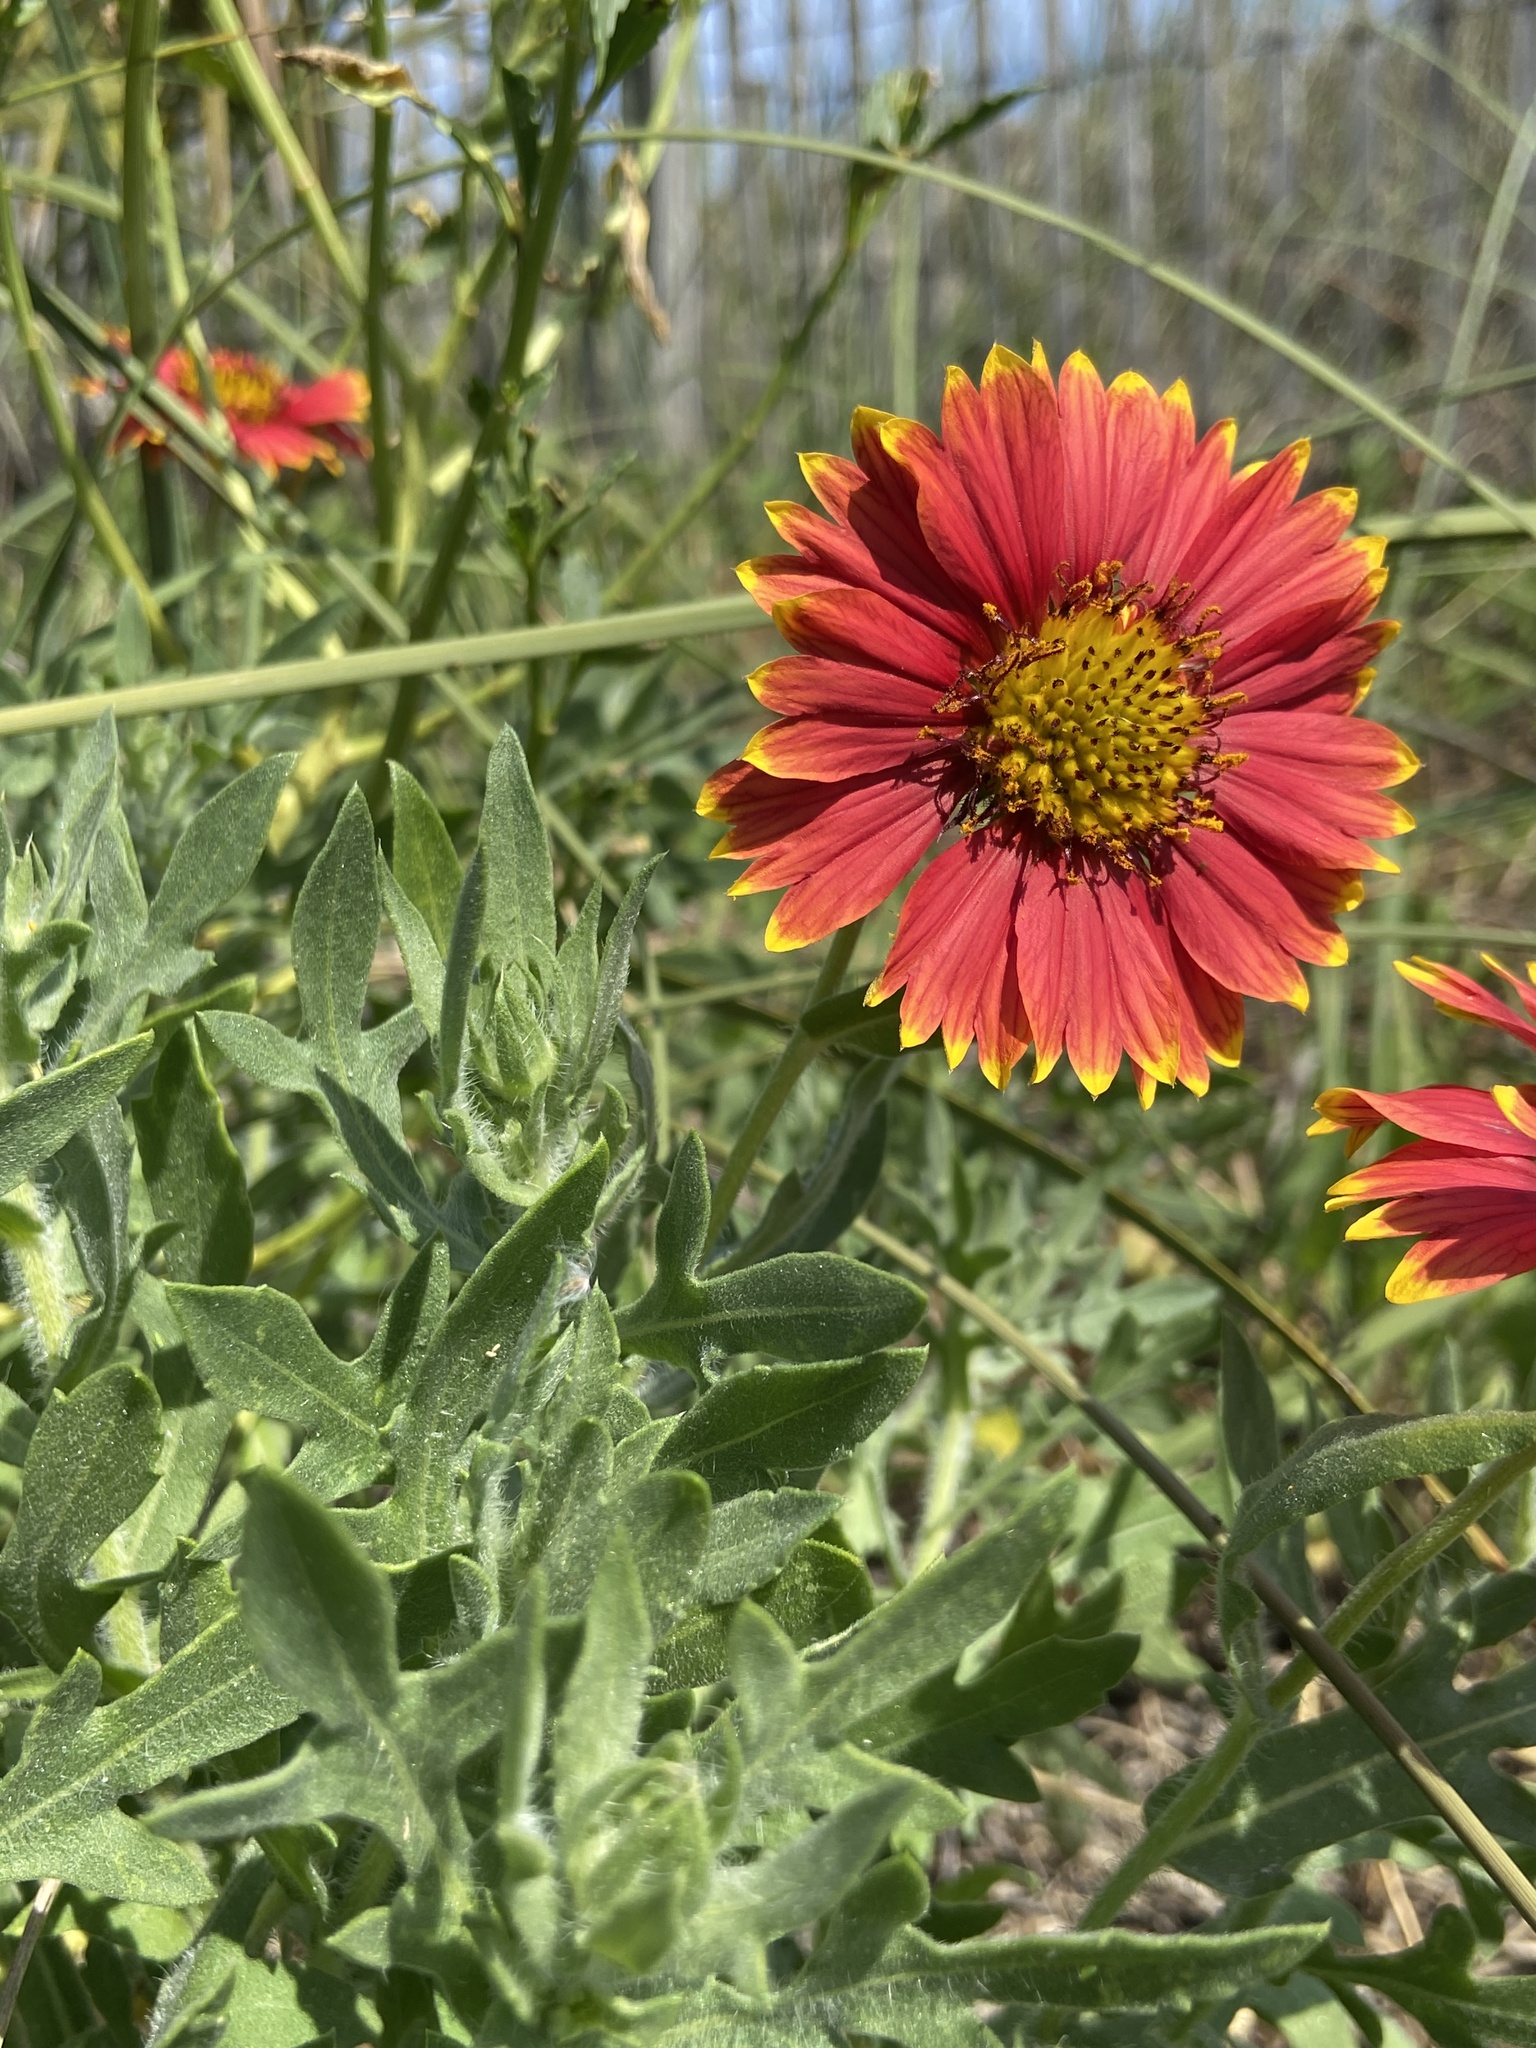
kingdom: Plantae
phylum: Tracheophyta
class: Magnoliopsida
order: Asterales
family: Asteraceae
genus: Gaillardia
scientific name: Gaillardia pulchella
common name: Firewheel
